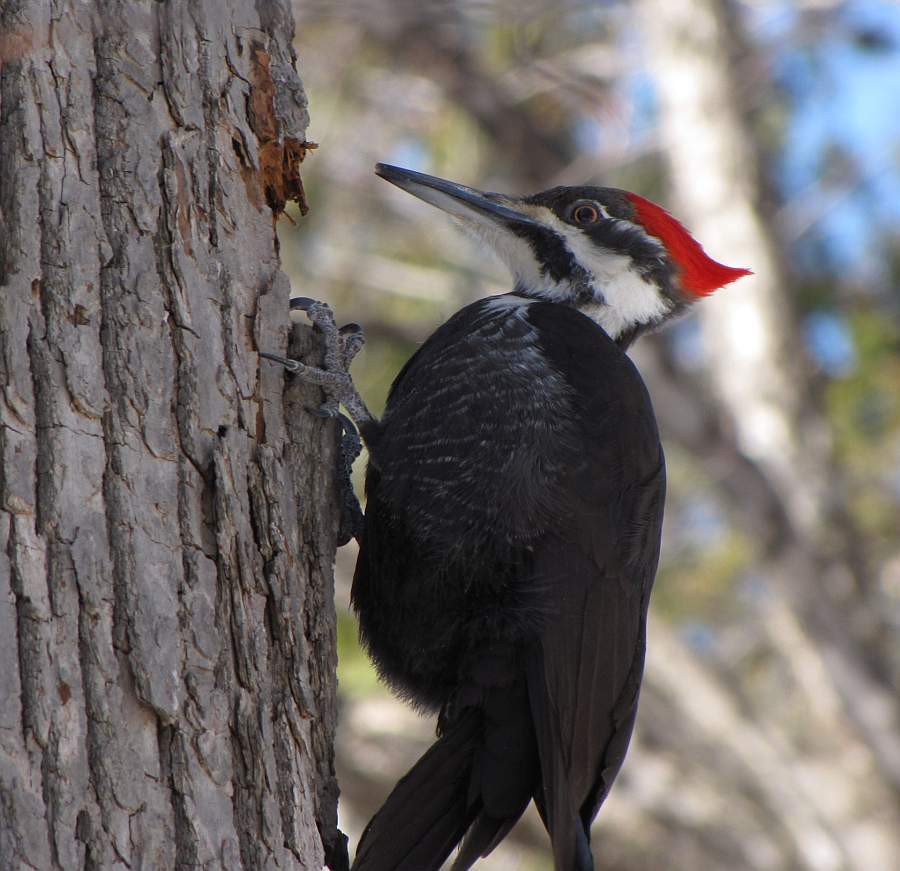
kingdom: Animalia
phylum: Chordata
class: Aves
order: Piciformes
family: Picidae
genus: Dryocopus
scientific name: Dryocopus pileatus
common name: Pileated woodpecker
